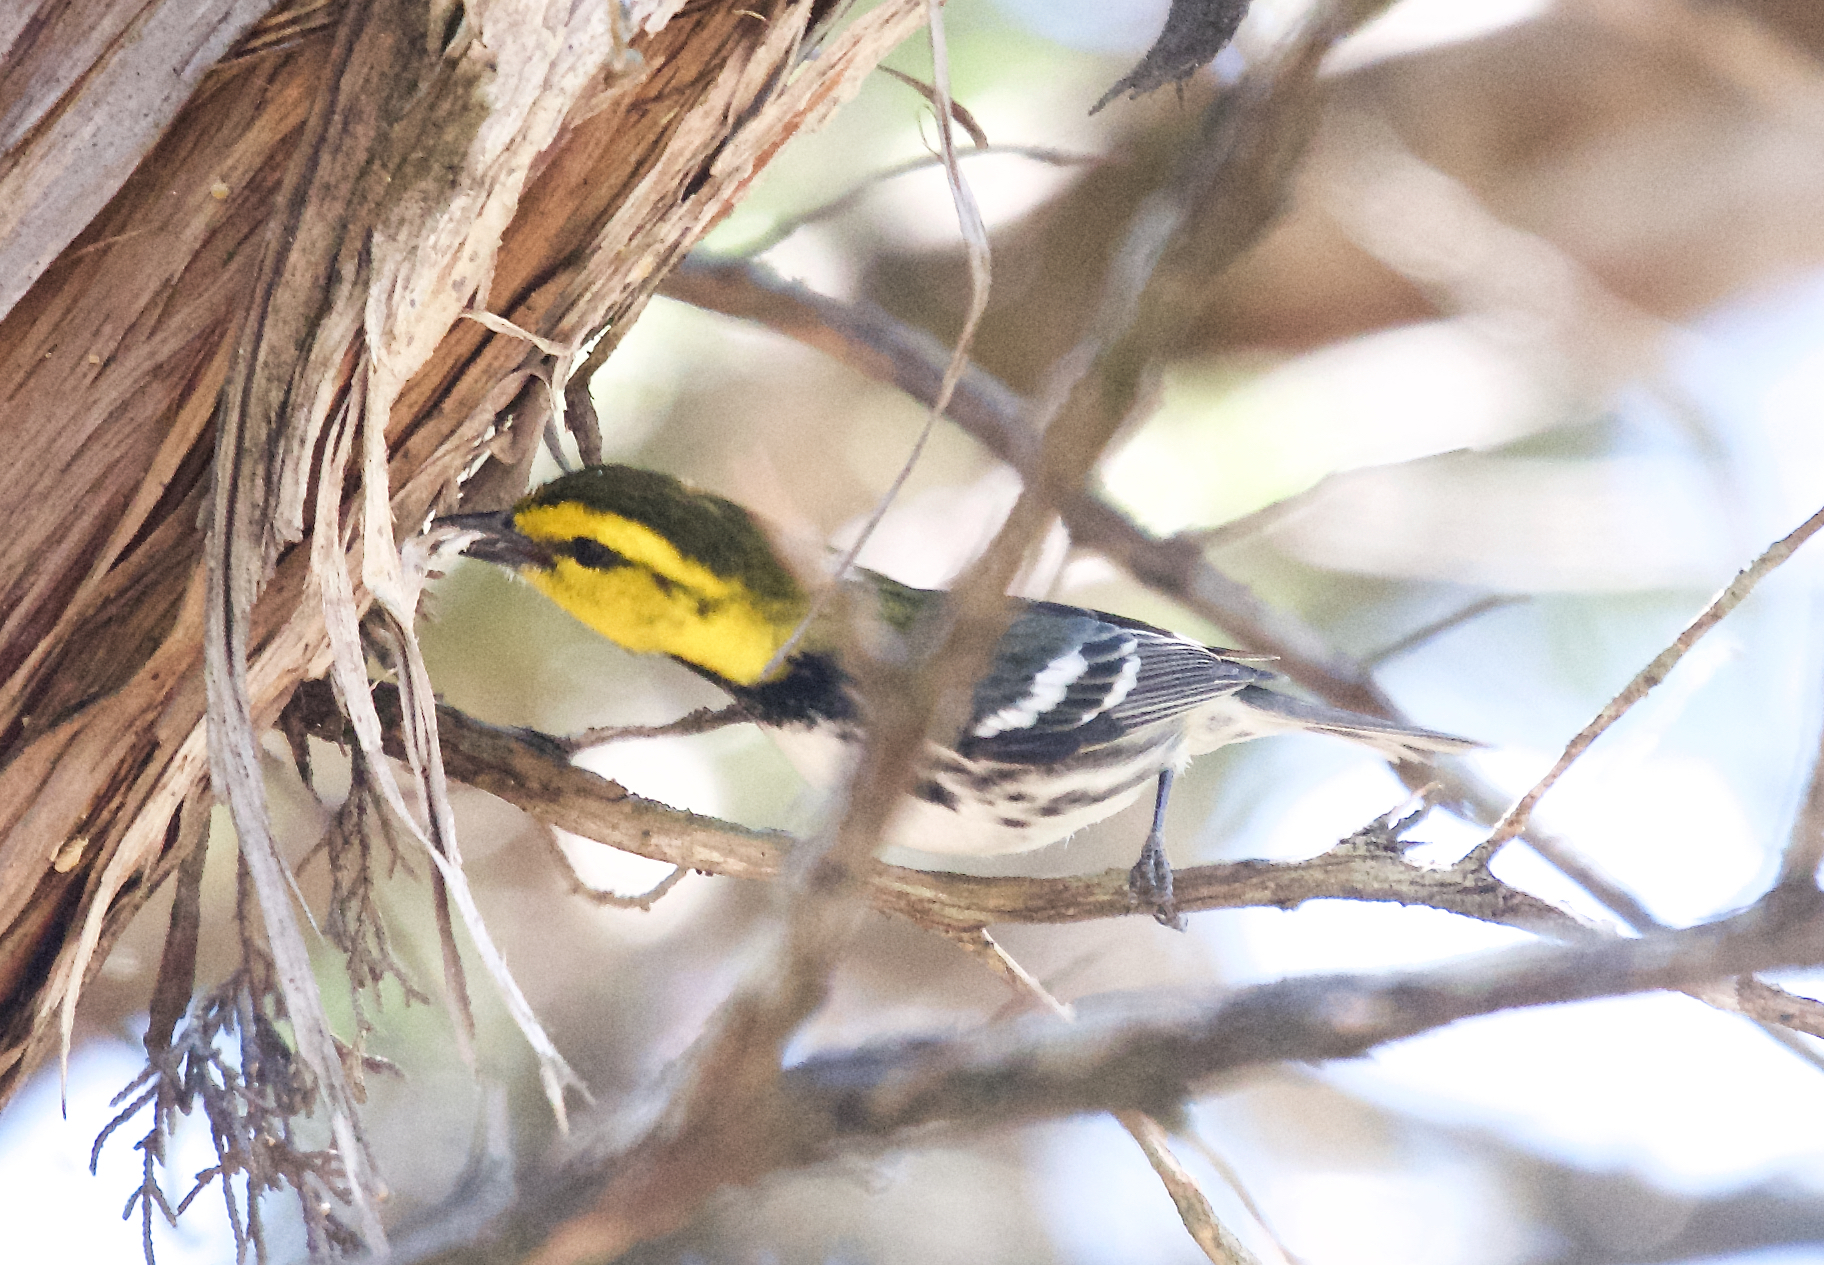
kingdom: Animalia
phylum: Chordata
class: Aves
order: Passeriformes
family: Parulidae
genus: Setophaga
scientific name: Setophaga chrysoparia
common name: Golden-cheeked warbler
